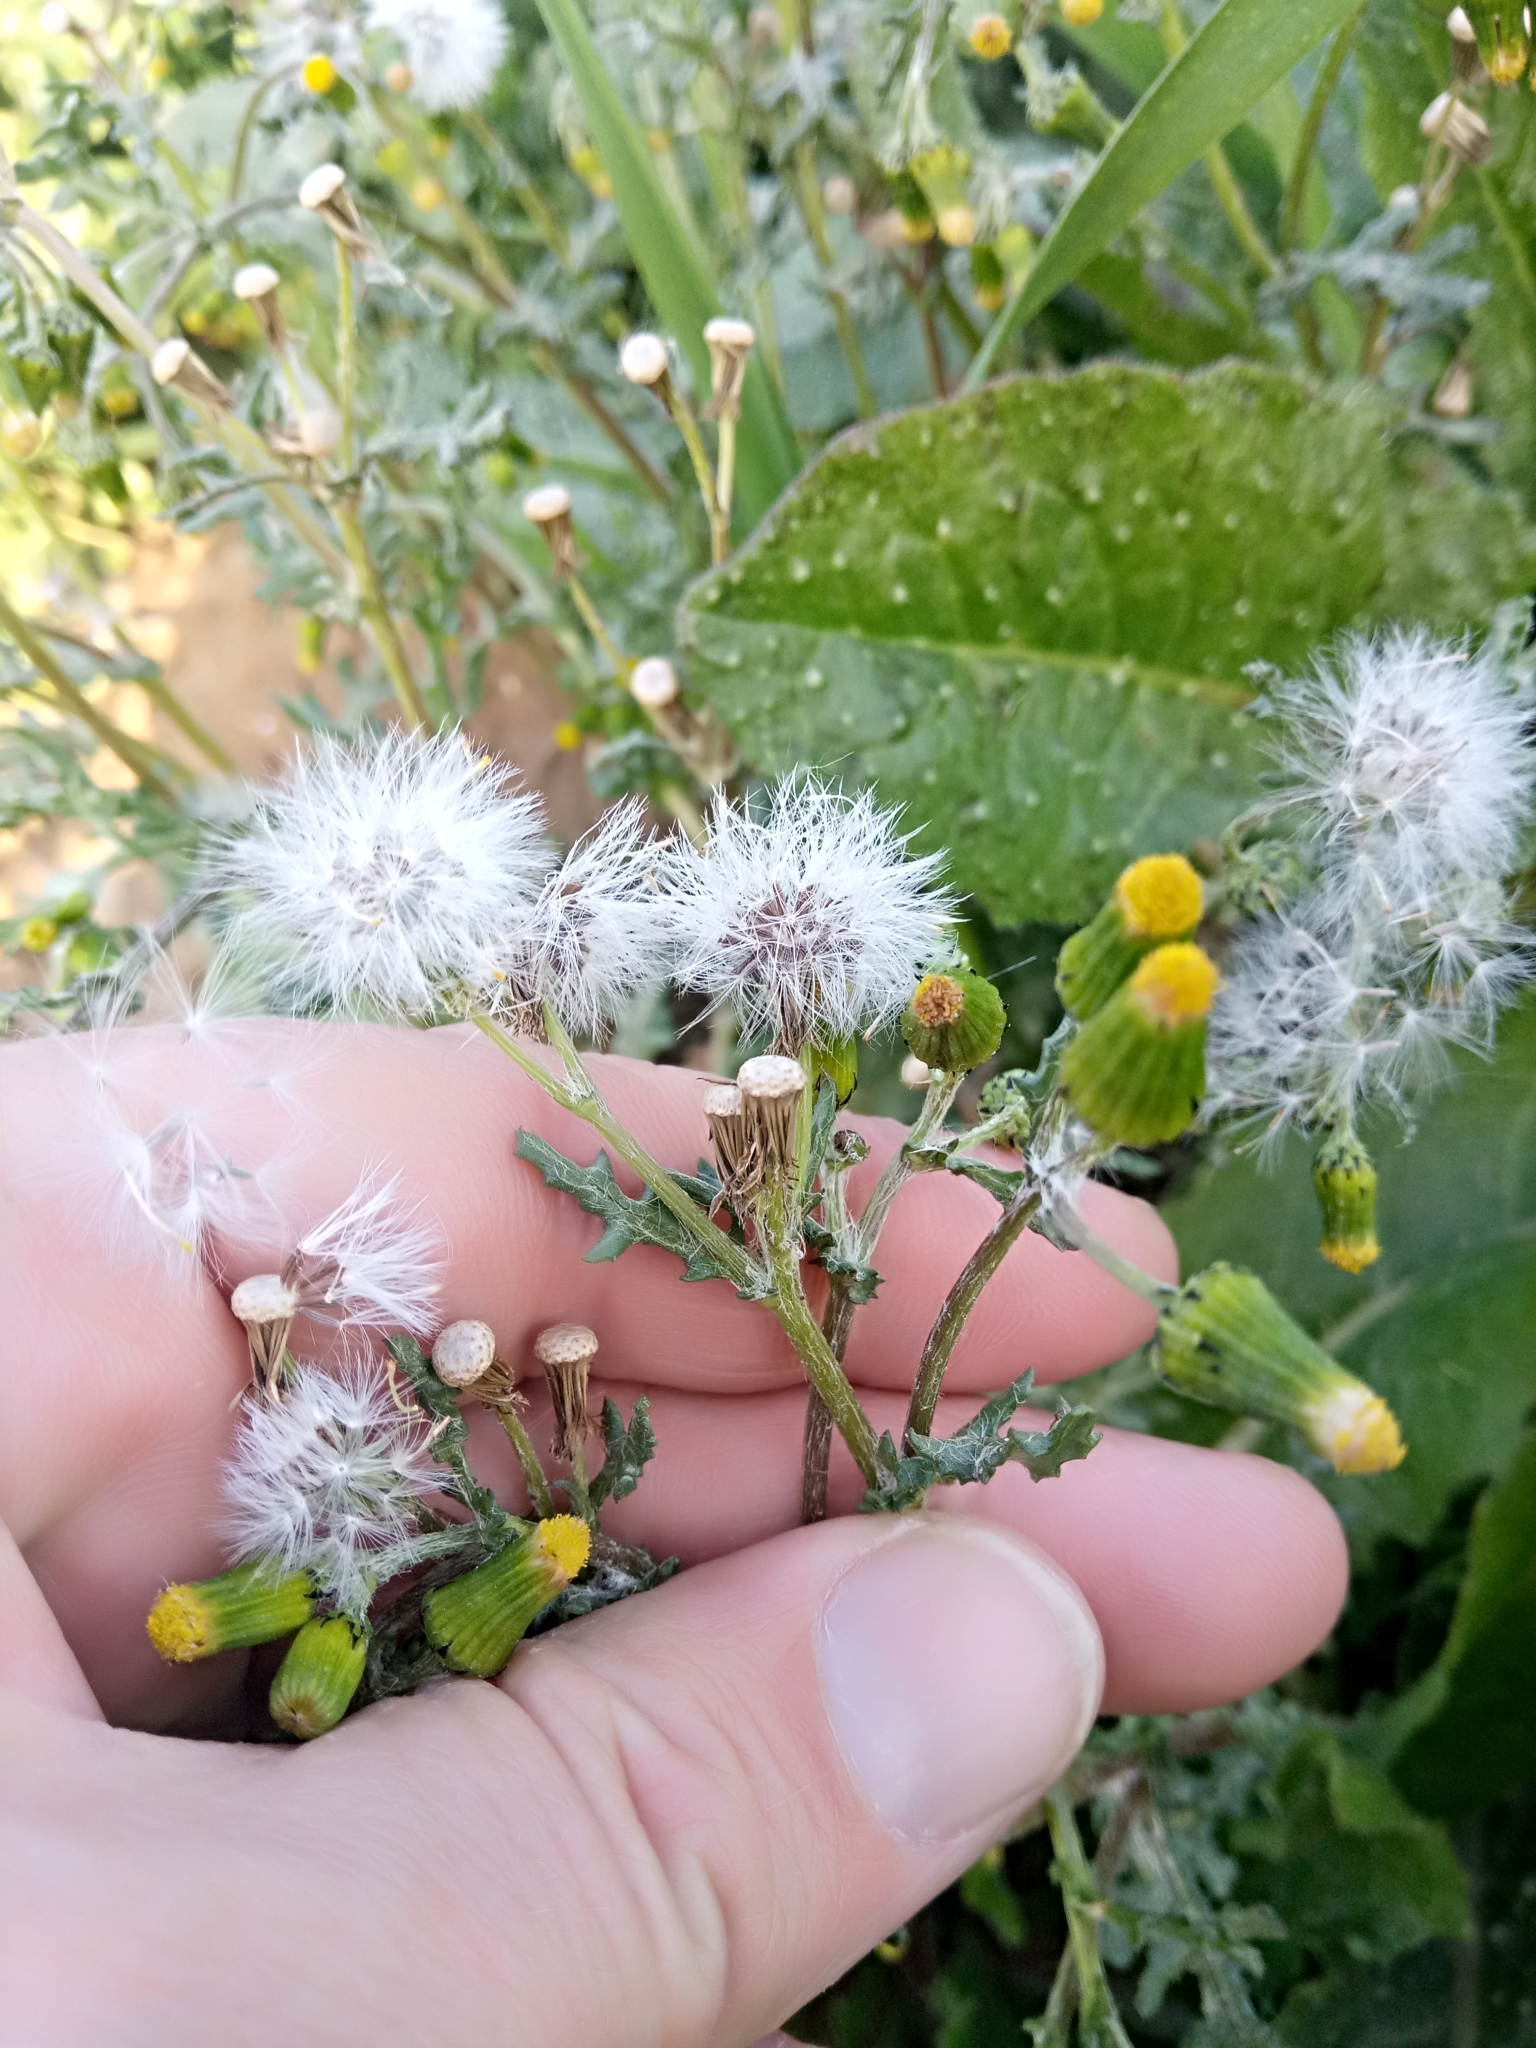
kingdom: Plantae
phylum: Tracheophyta
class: Magnoliopsida
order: Asterales
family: Asteraceae
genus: Senecio
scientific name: Senecio vulgaris
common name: Old-man-in-the-spring
